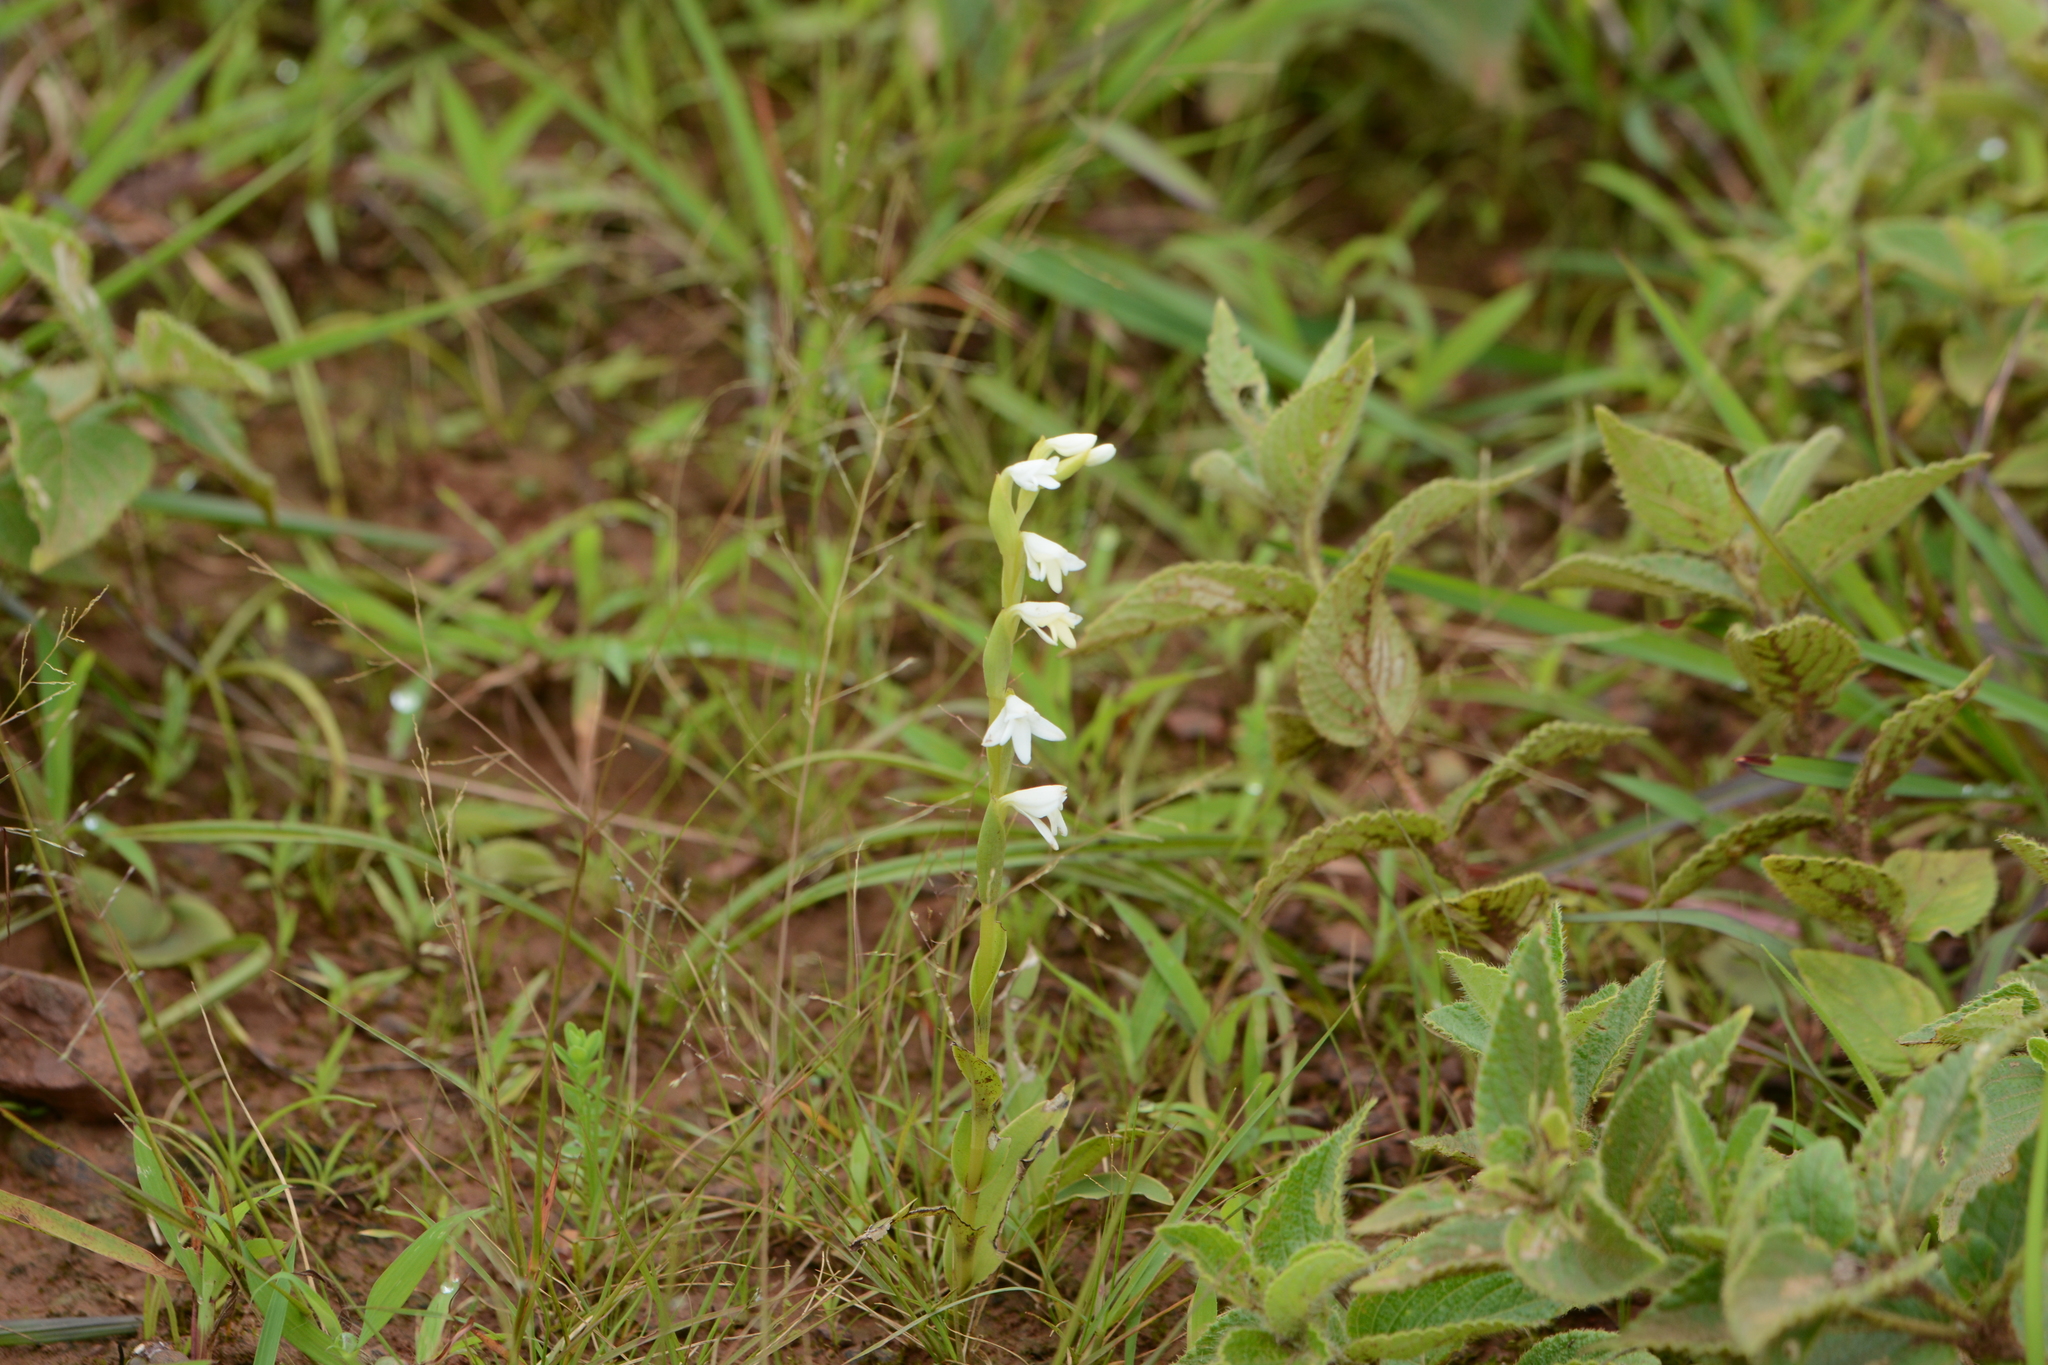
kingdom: Plantae
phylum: Tracheophyta
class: Liliopsida
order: Asparagales
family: Orchidaceae
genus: Habenaria
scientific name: Habenaria heyneana
